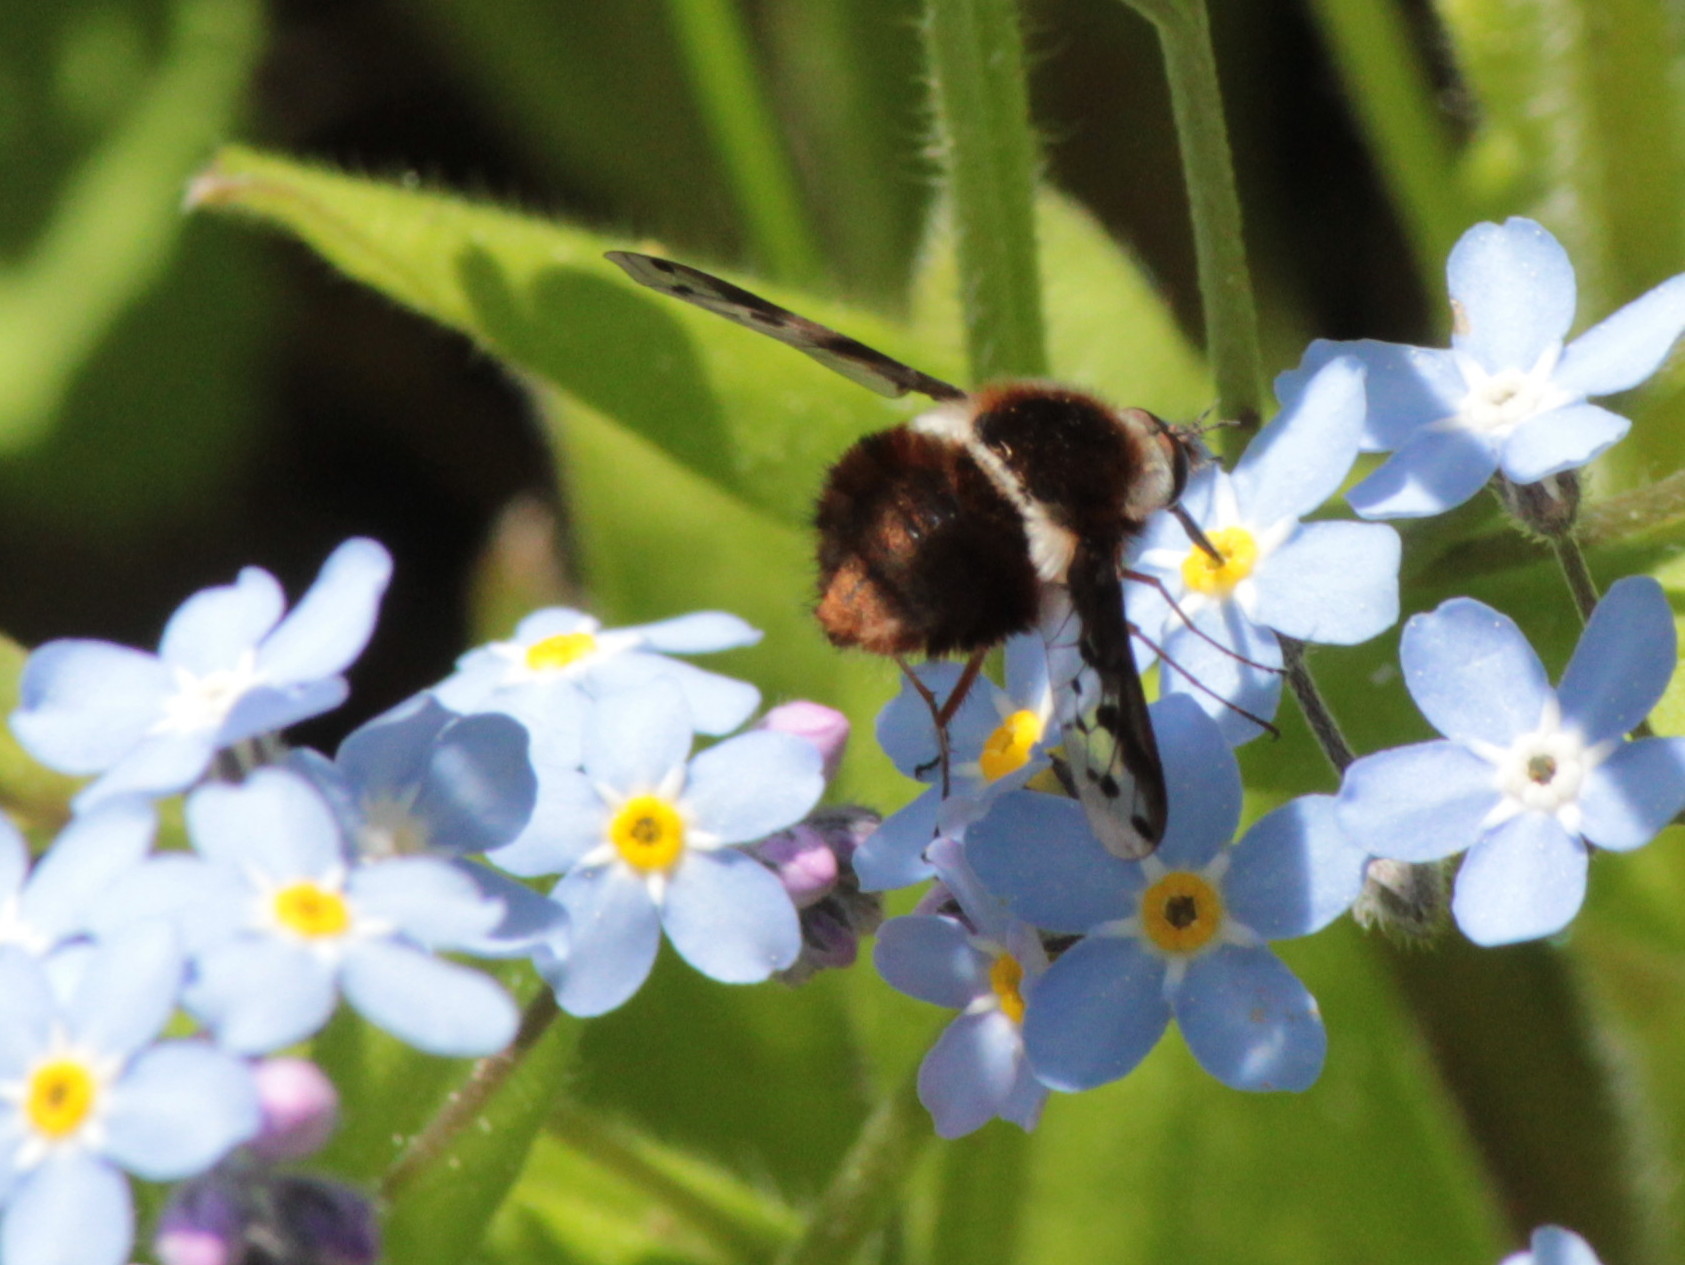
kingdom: Animalia
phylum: Arthropoda
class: Insecta
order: Diptera
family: Bombyliidae
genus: Bombylius
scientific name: Bombylius pygmaeus
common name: Pygmy bee fly
